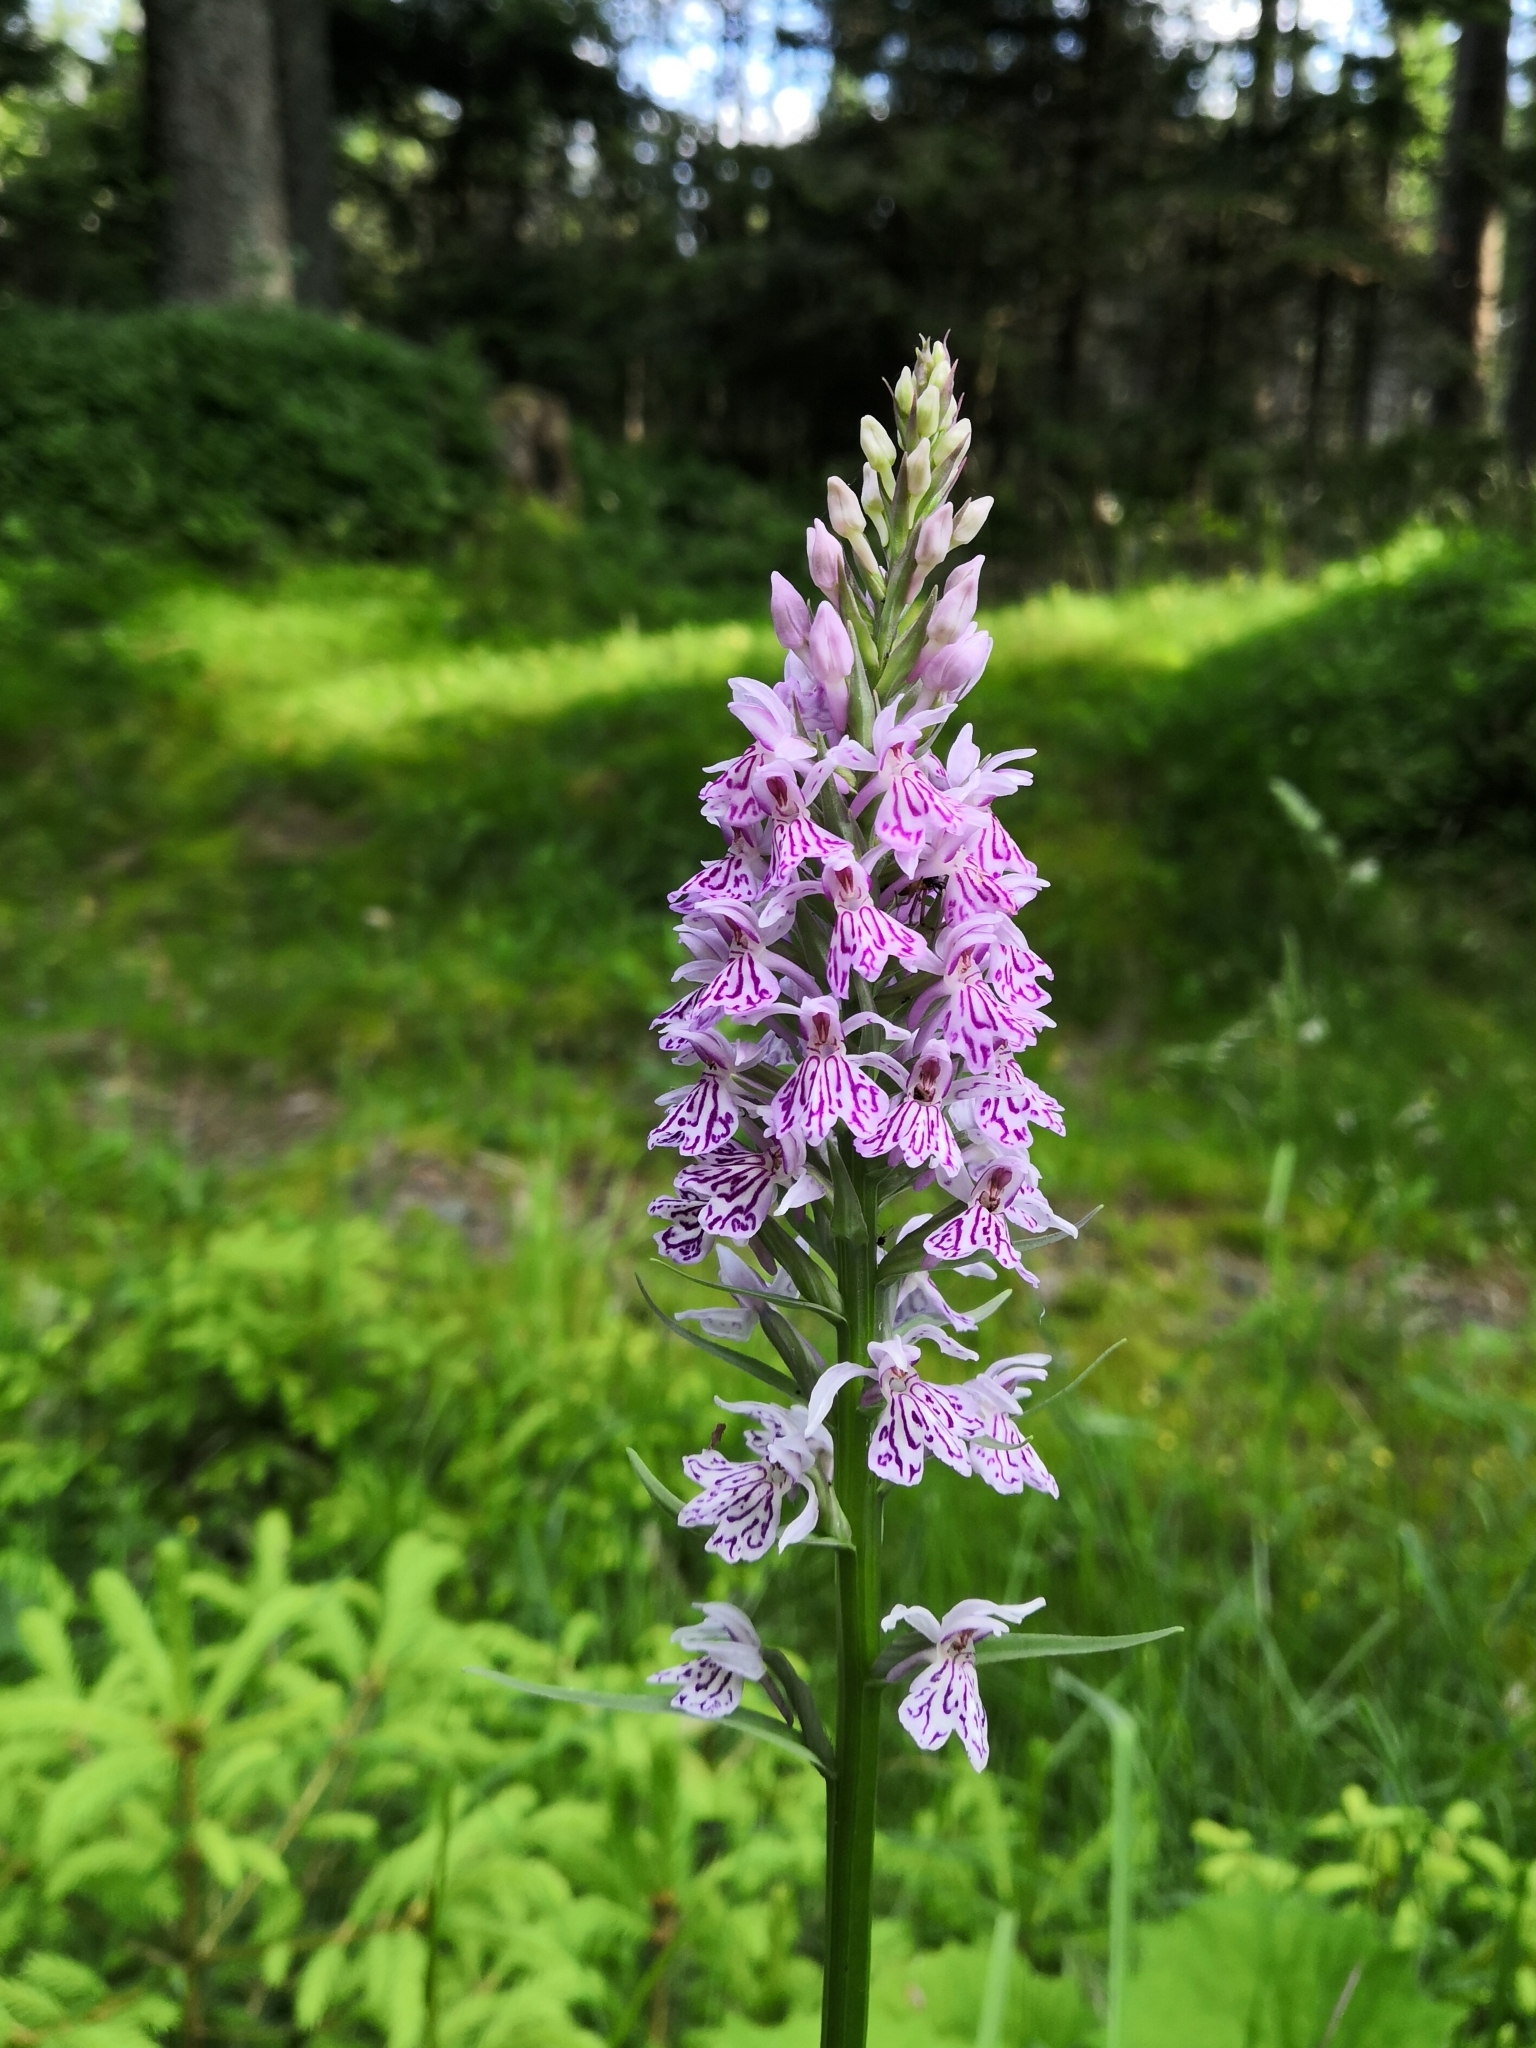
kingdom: Plantae
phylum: Tracheophyta
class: Liliopsida
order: Asparagales
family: Orchidaceae
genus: Dactylorhiza
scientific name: Dactylorhiza maculata
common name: Heath spotted-orchid
